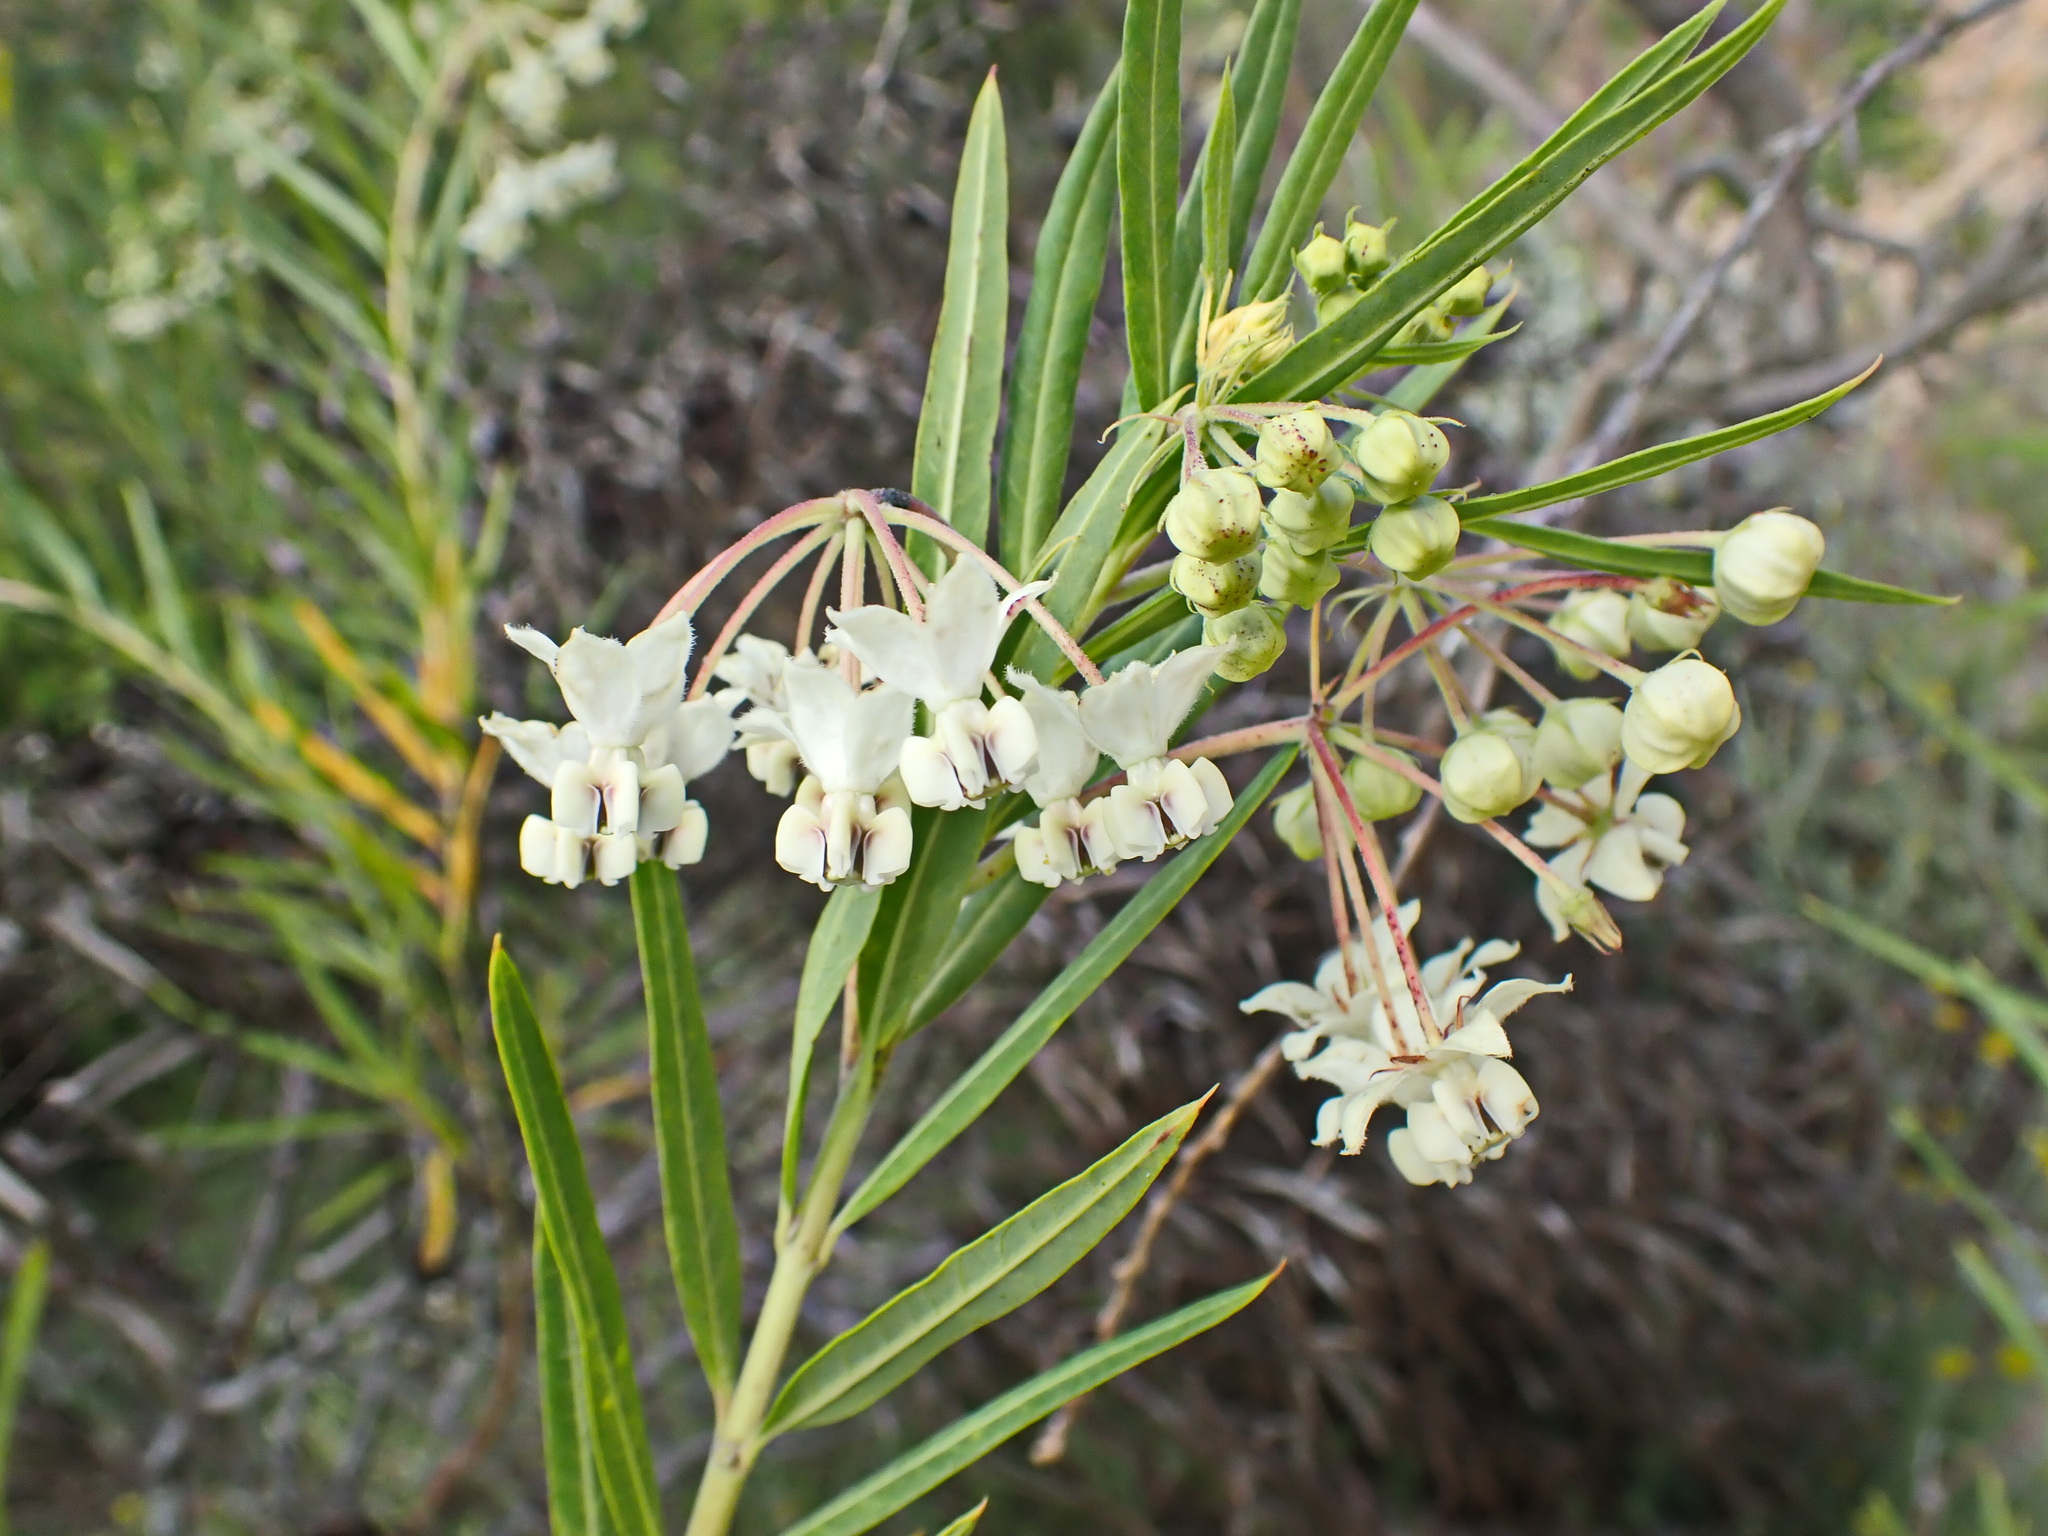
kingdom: Plantae
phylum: Tracheophyta
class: Magnoliopsida
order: Gentianales
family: Apocynaceae
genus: Gomphocarpus
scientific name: Gomphocarpus fruticosus
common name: Milkweed
